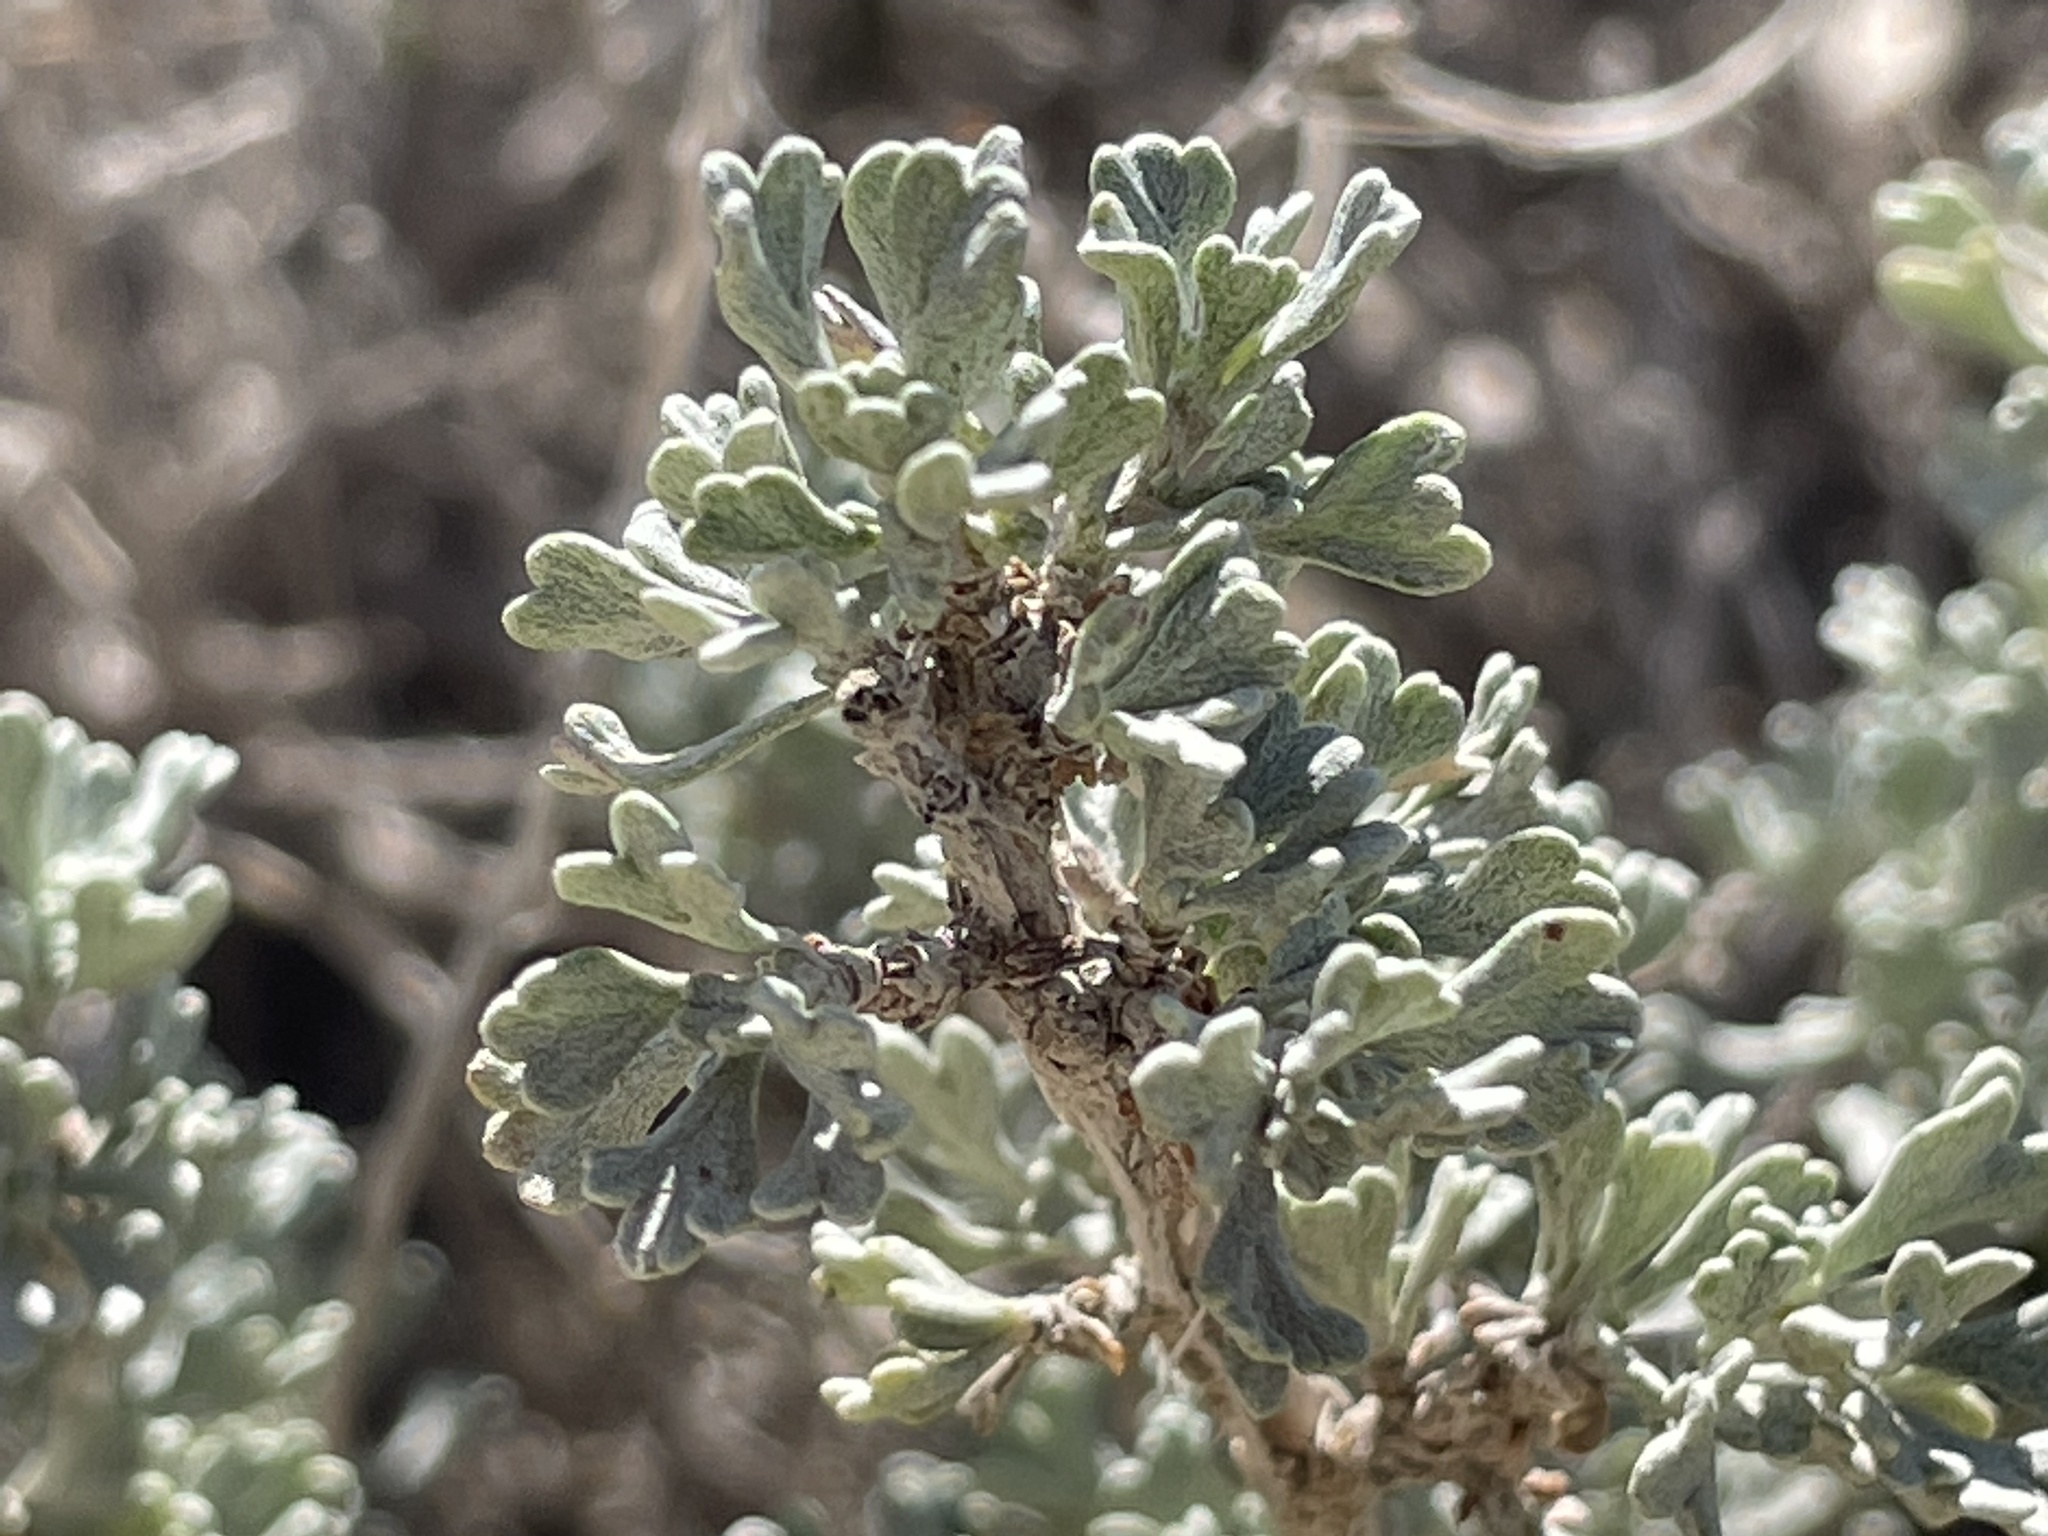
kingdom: Plantae
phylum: Tracheophyta
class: Magnoliopsida
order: Asterales
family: Asteraceae
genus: Artemisia
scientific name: Artemisia nova
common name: Black-sage
